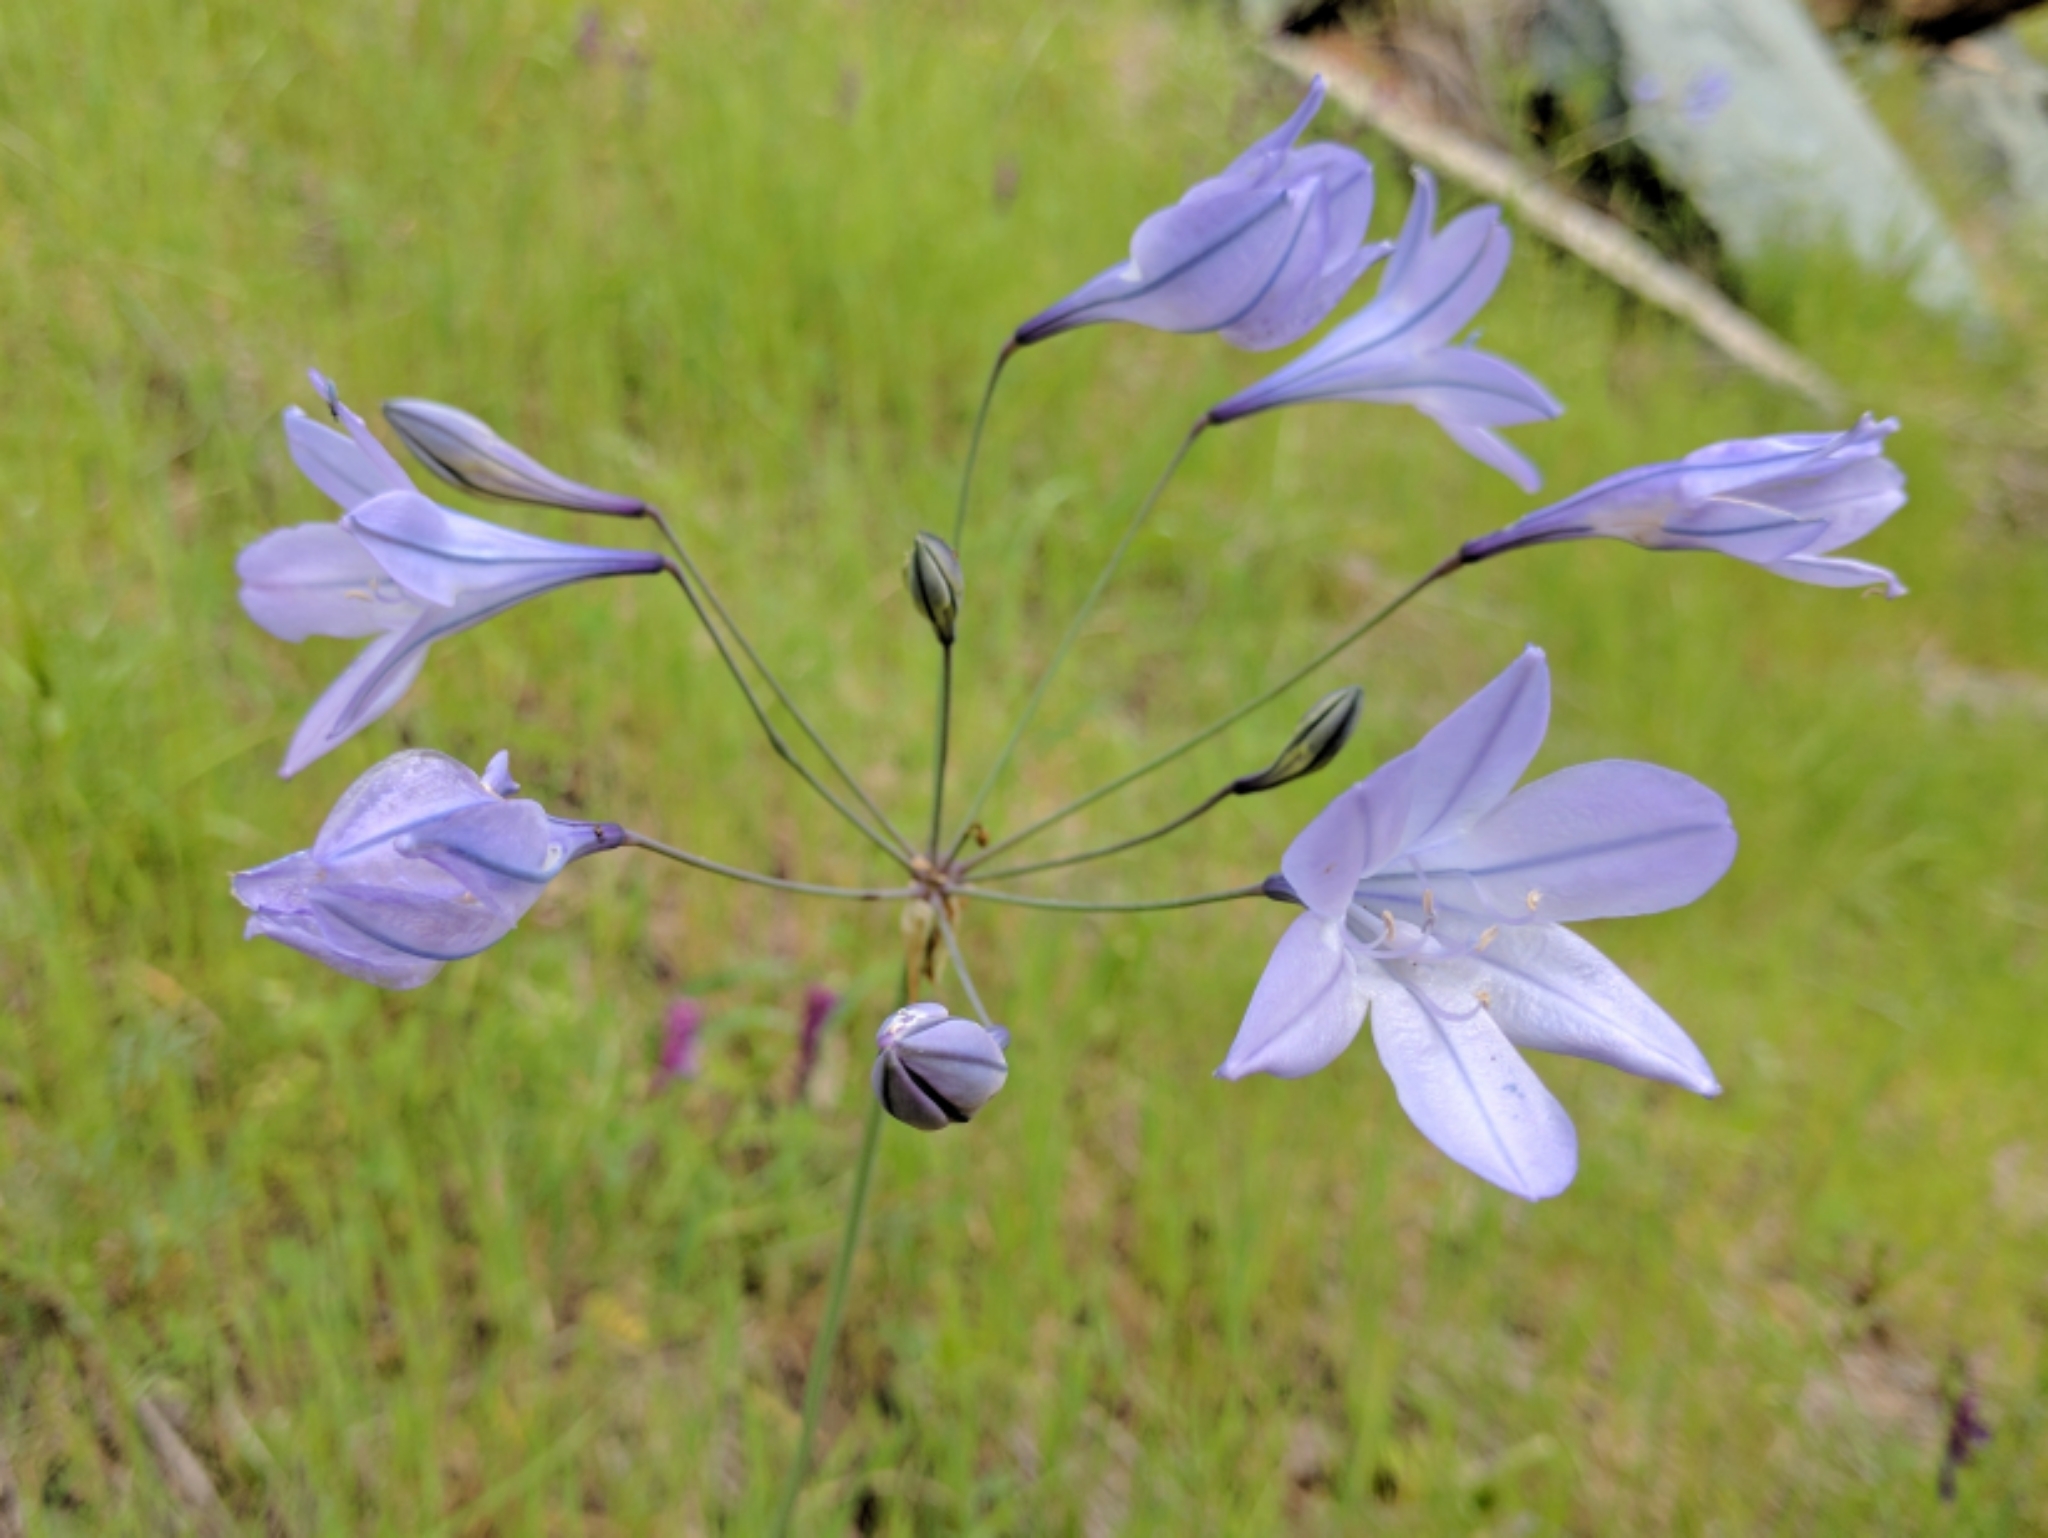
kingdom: Plantae
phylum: Tracheophyta
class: Liliopsida
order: Asparagales
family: Asparagaceae
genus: Triteleia
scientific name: Triteleia laxa
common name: Triplet-lily
